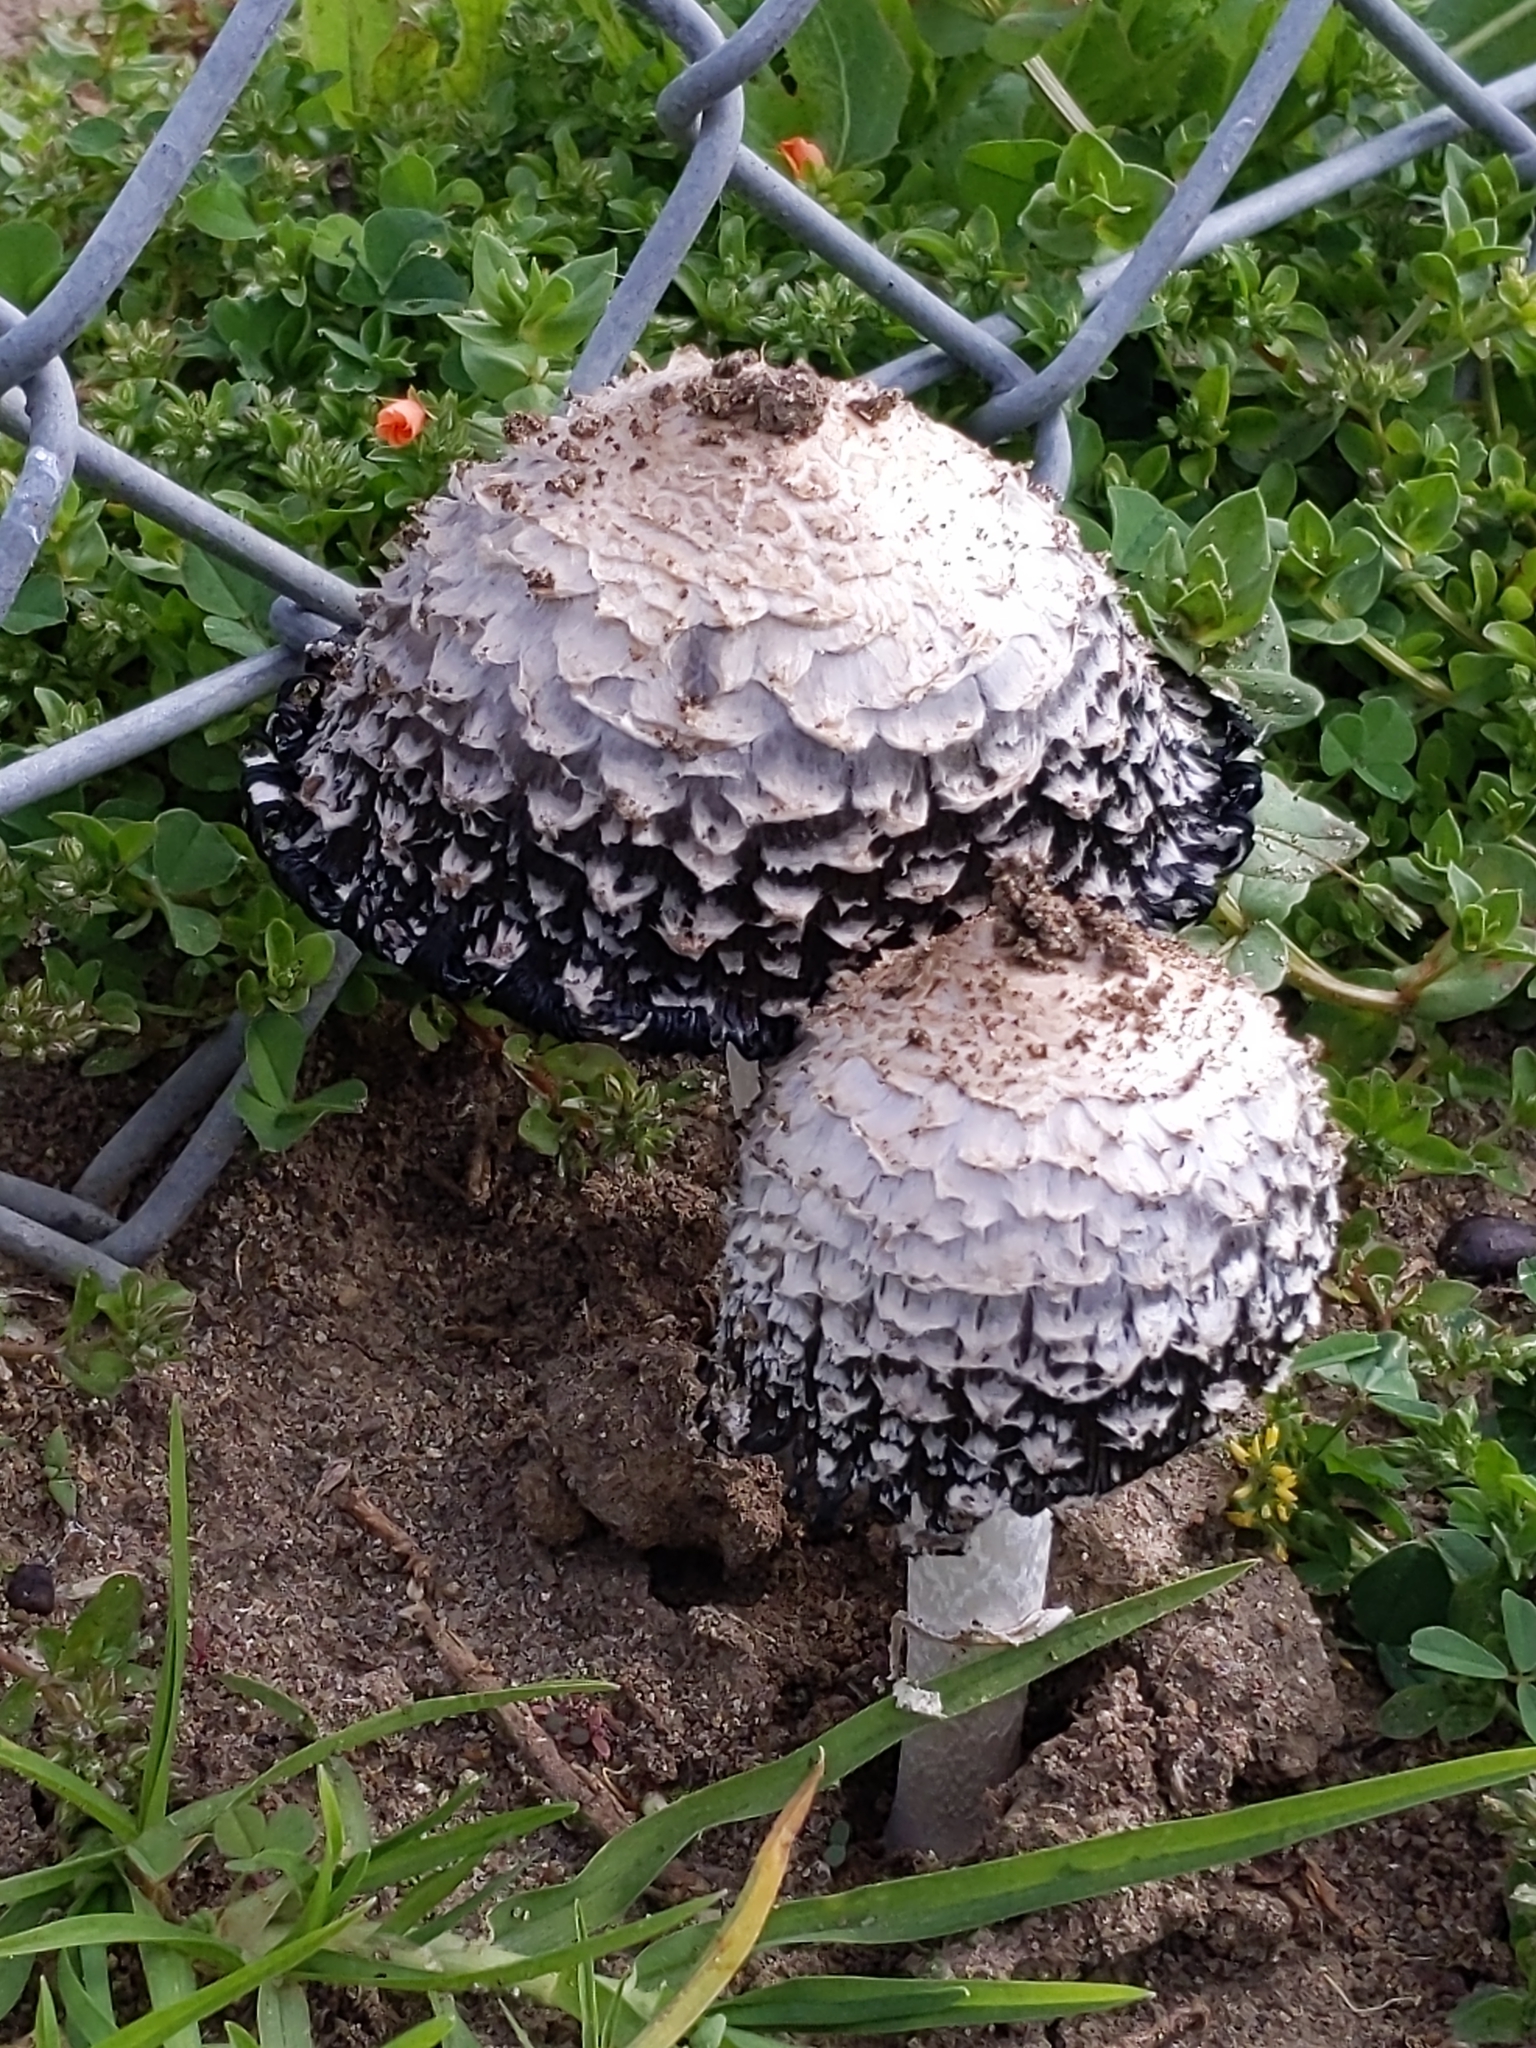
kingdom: Fungi
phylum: Basidiomycota
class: Agaricomycetes
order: Agaricales
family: Agaricaceae
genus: Coprinus
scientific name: Coprinus comatus
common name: Lawyer's wig
